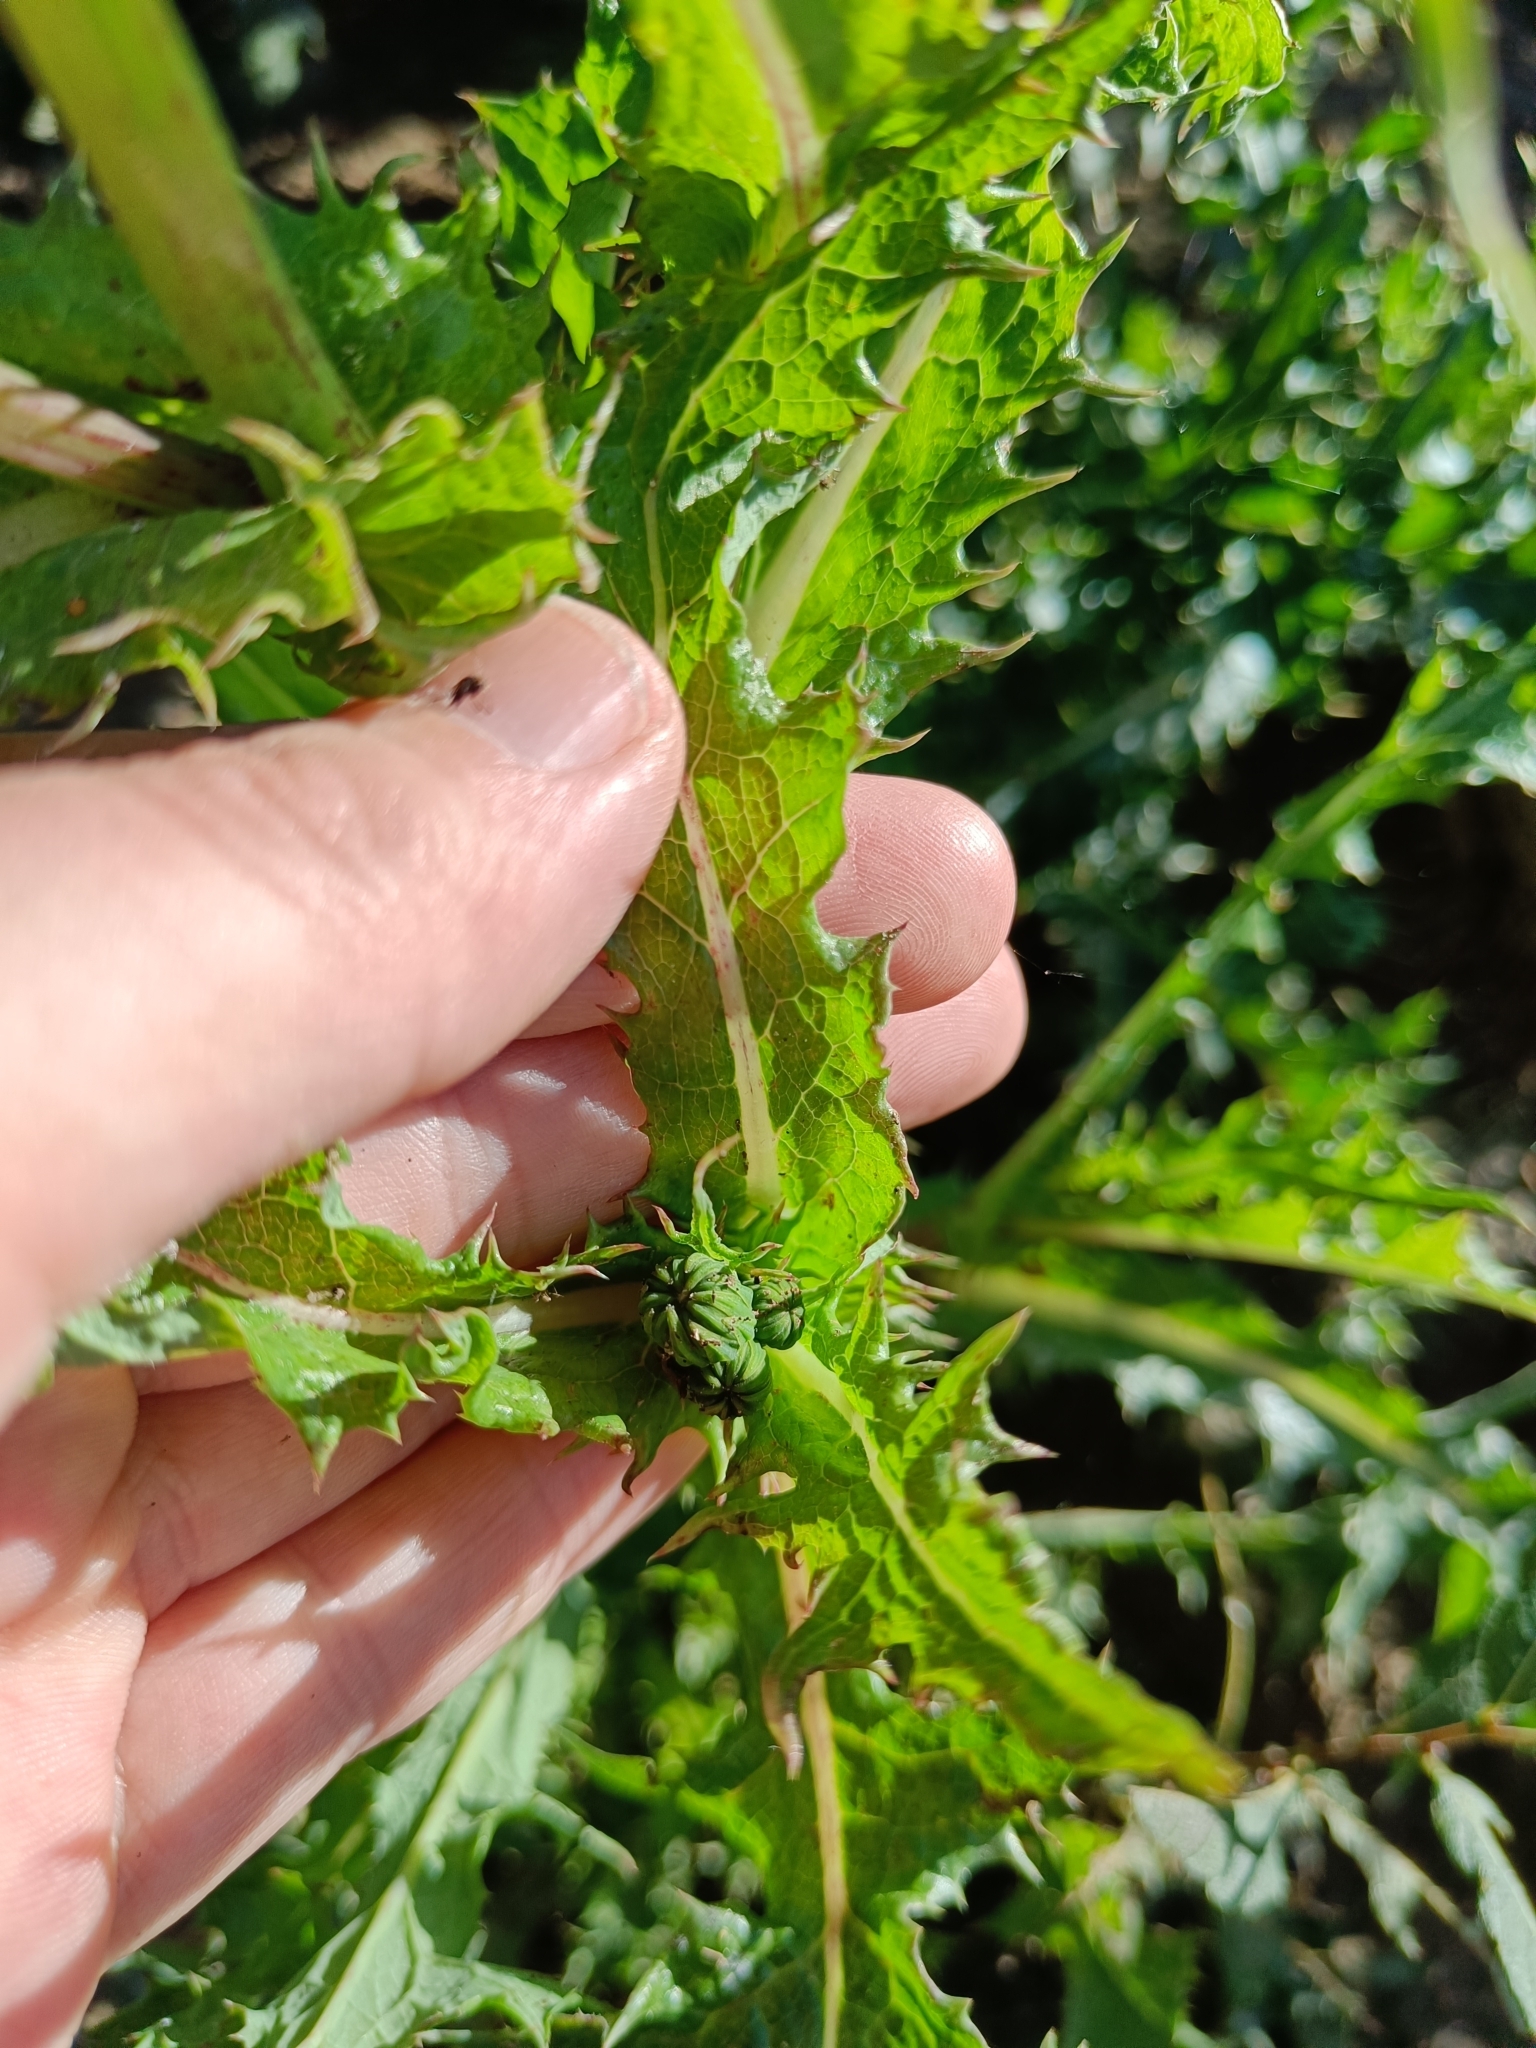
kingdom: Plantae
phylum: Tracheophyta
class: Magnoliopsida
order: Asterales
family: Asteraceae
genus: Sonchus
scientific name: Sonchus asper
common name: Prickly sow-thistle
